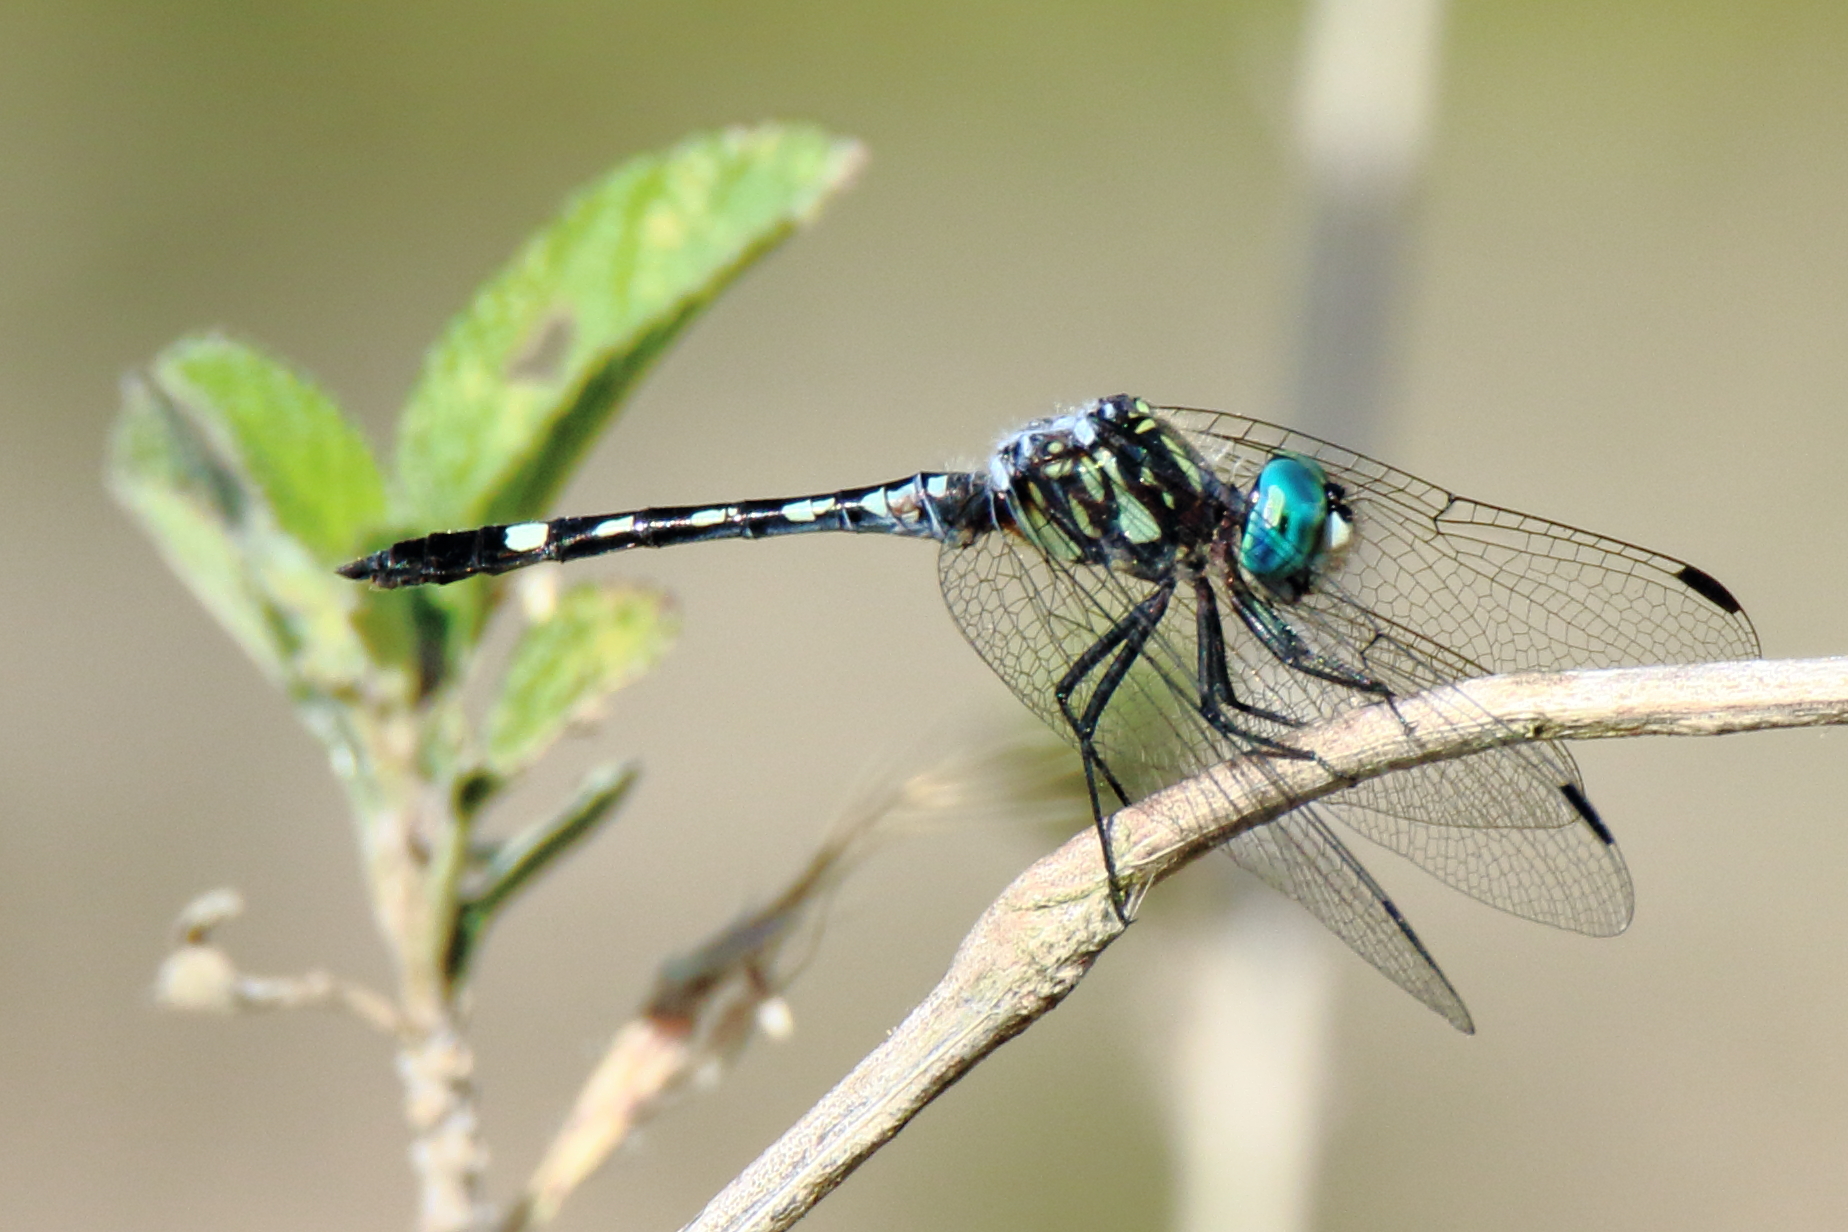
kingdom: Animalia
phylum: Arthropoda
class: Insecta
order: Odonata
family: Libellulidae
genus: Micrathyria
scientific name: Micrathyria hagenii
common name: Thornbush dasher
